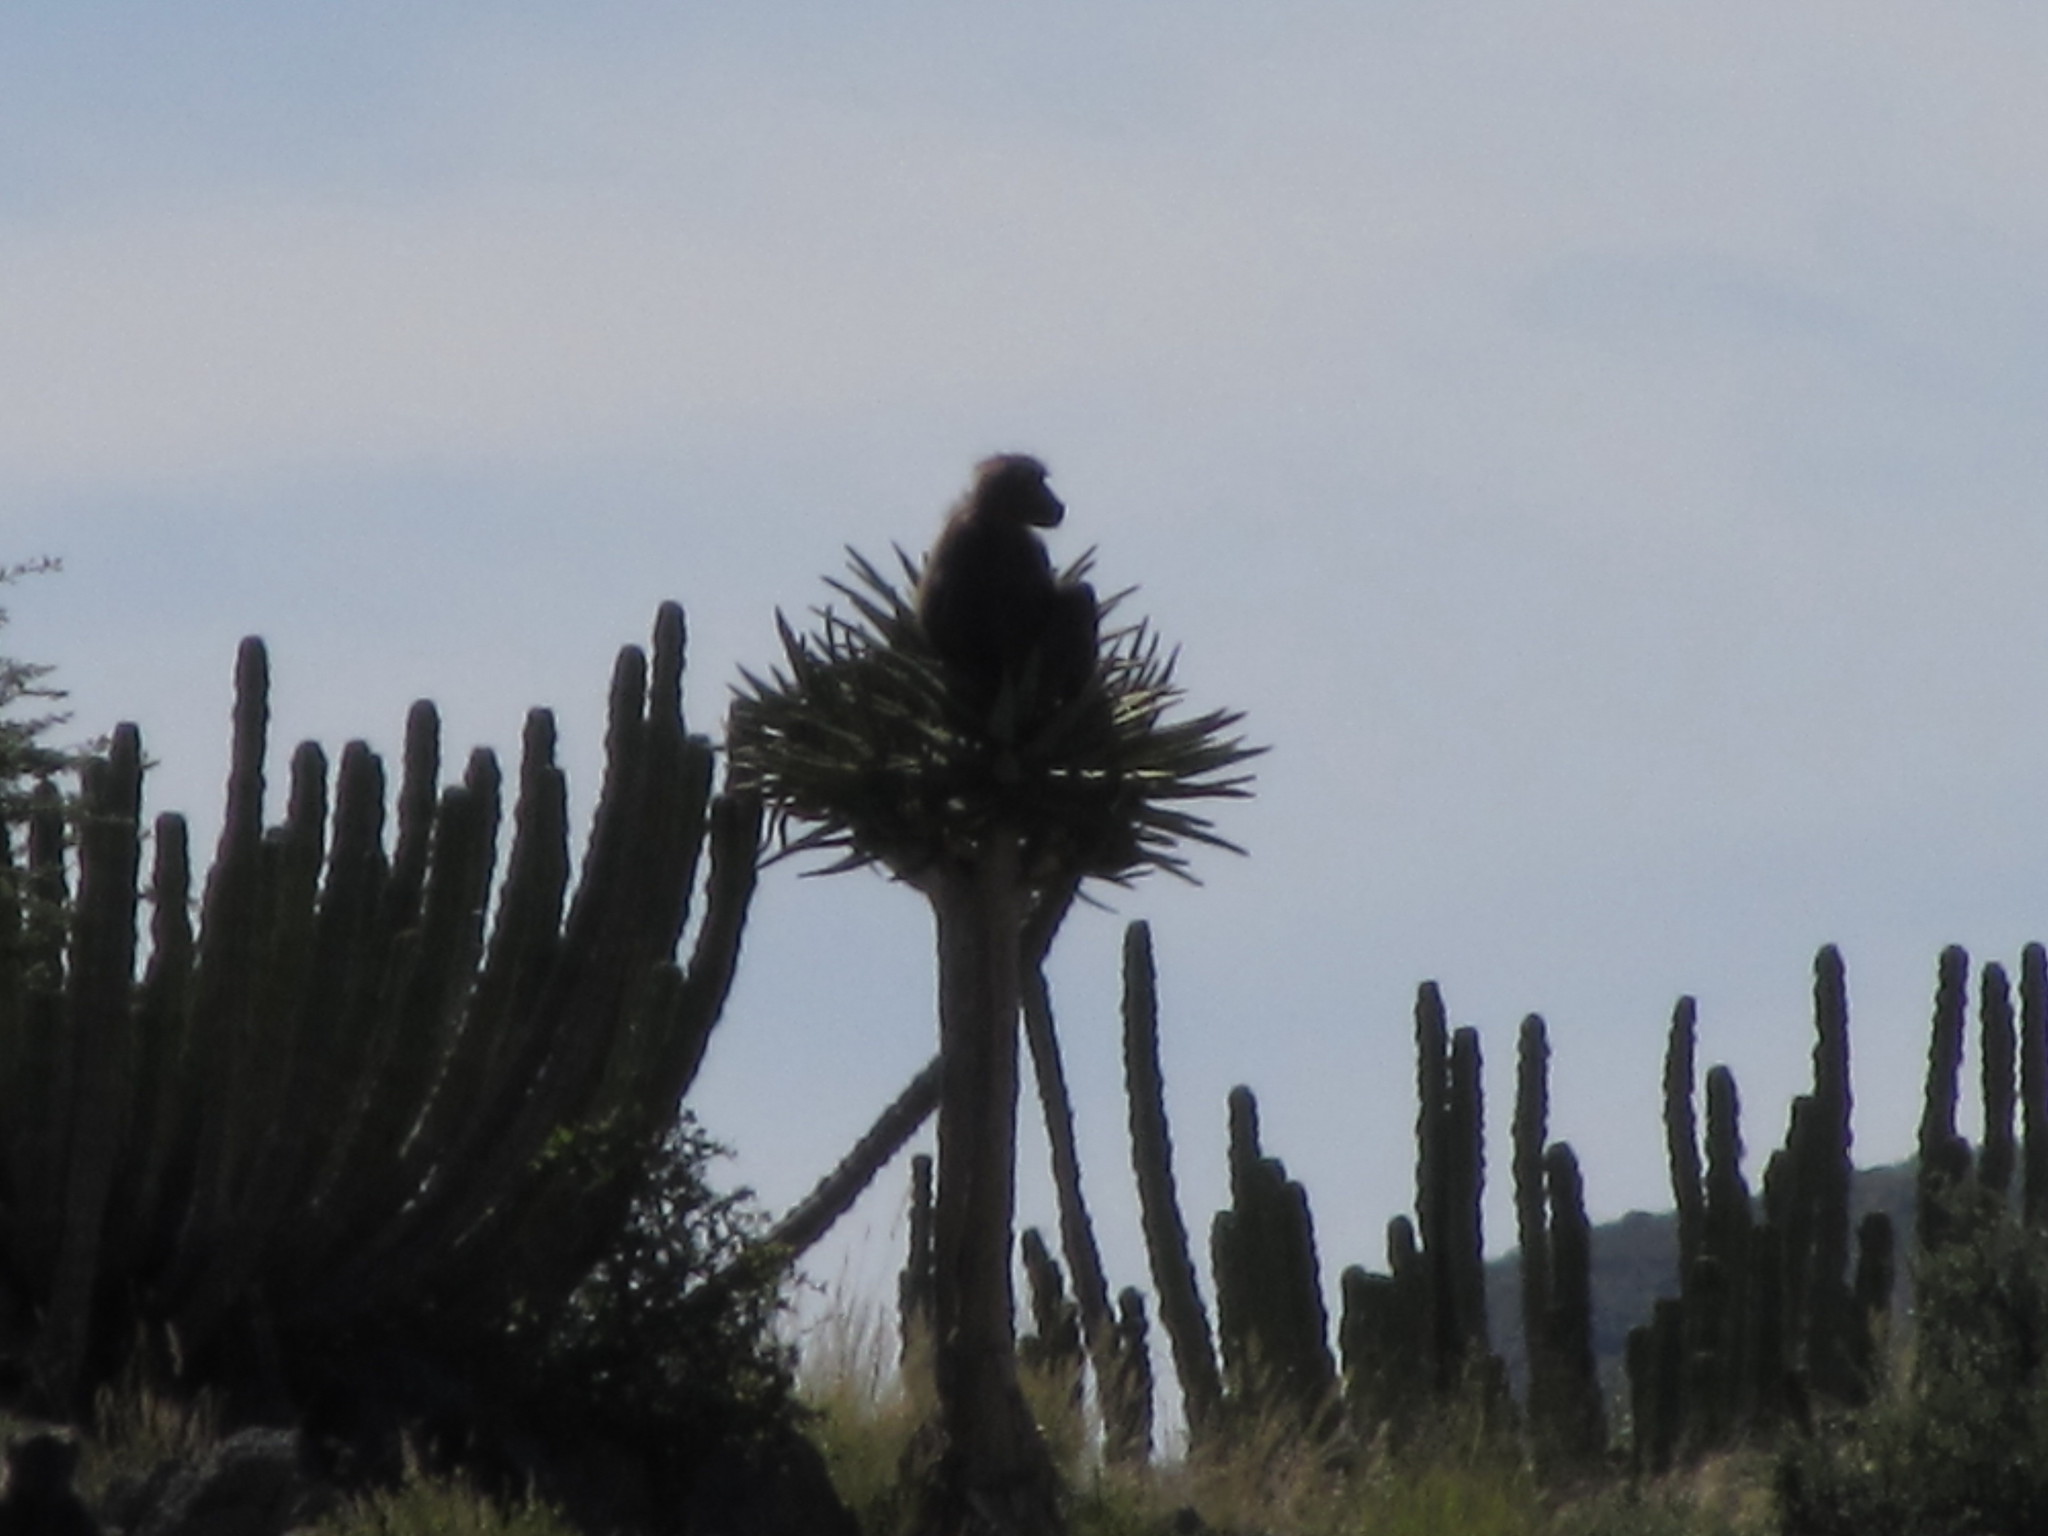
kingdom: Animalia
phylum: Chordata
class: Mammalia
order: Primates
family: Cercopithecidae
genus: Papio
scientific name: Papio ursinus
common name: Chacma baboon
